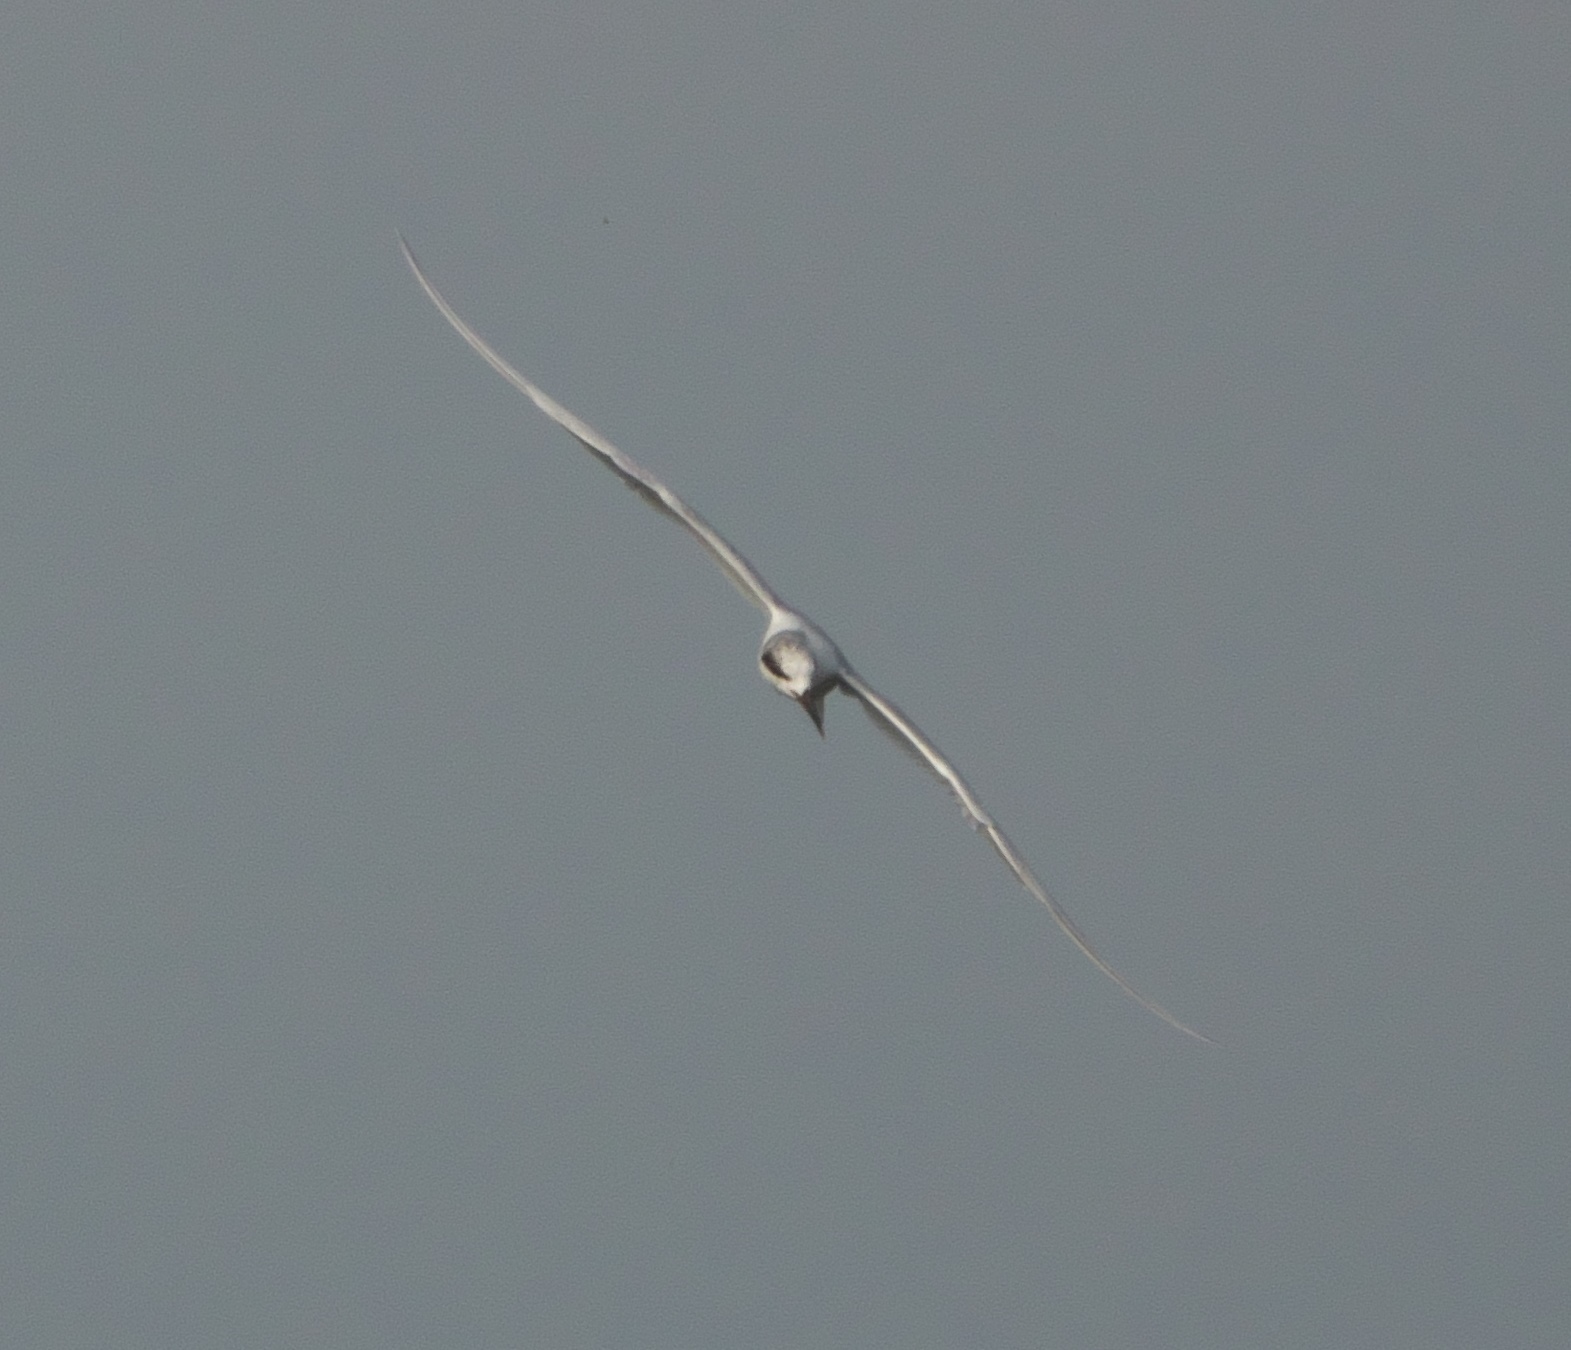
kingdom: Animalia
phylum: Chordata
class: Aves
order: Charadriiformes
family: Laridae
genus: Sterna
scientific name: Sterna forsteri
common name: Forster's tern
